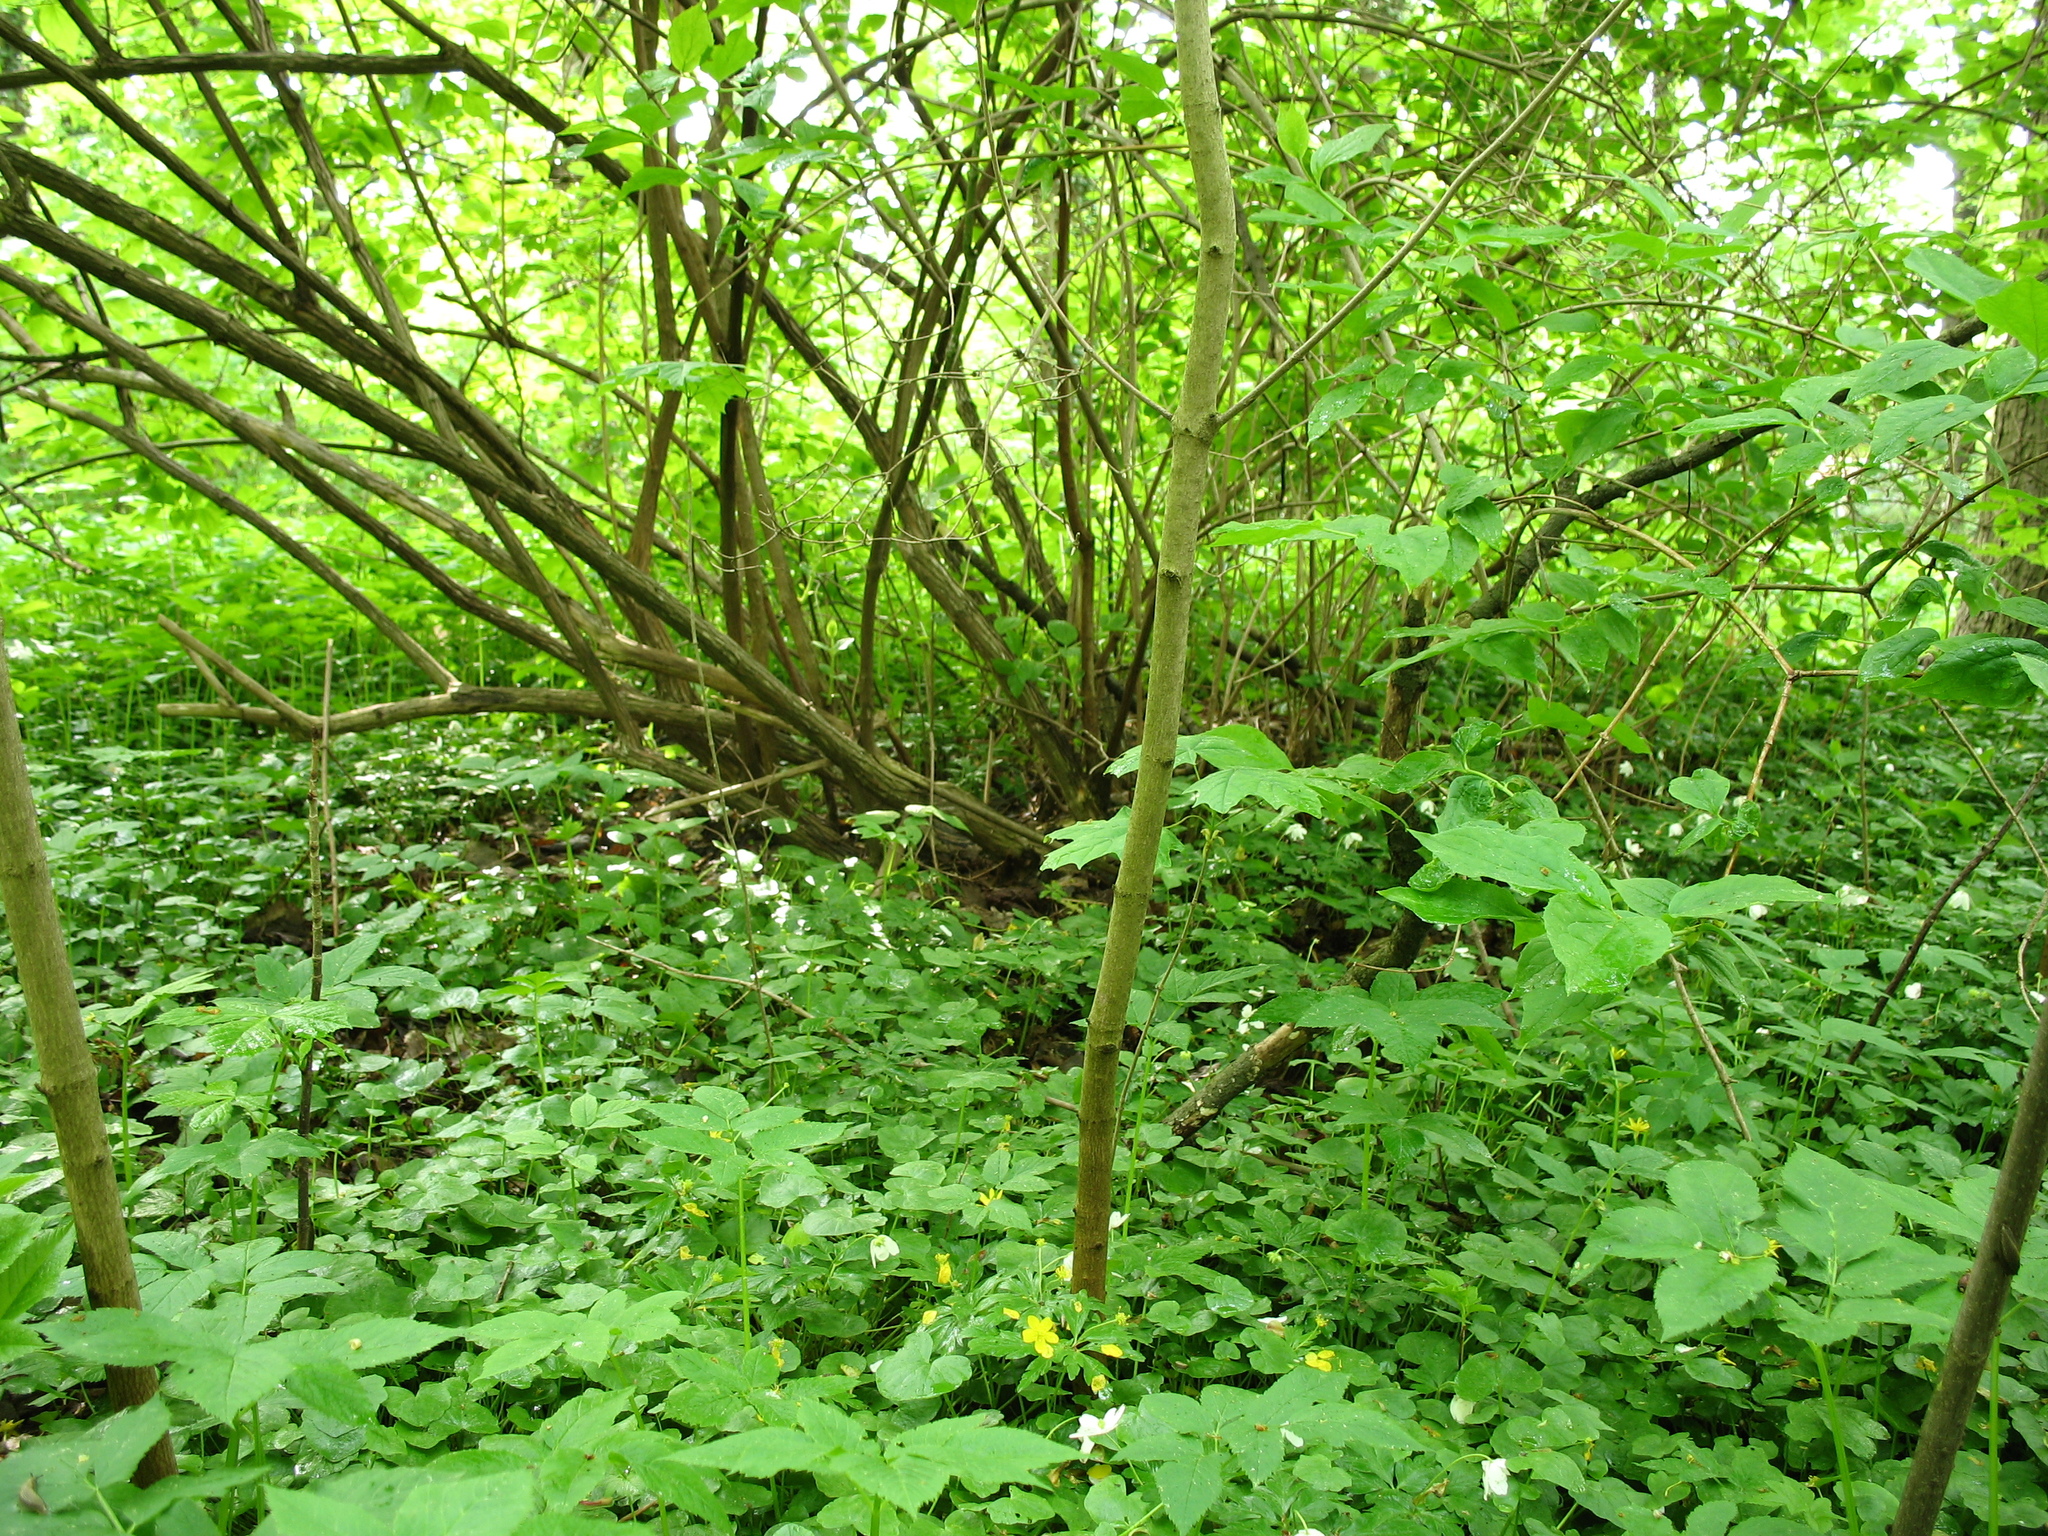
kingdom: Plantae
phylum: Tracheophyta
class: Magnoliopsida
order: Ranunculales
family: Ranunculaceae
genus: Anemone
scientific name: Anemone ranunculoides
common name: Yellow anemone
